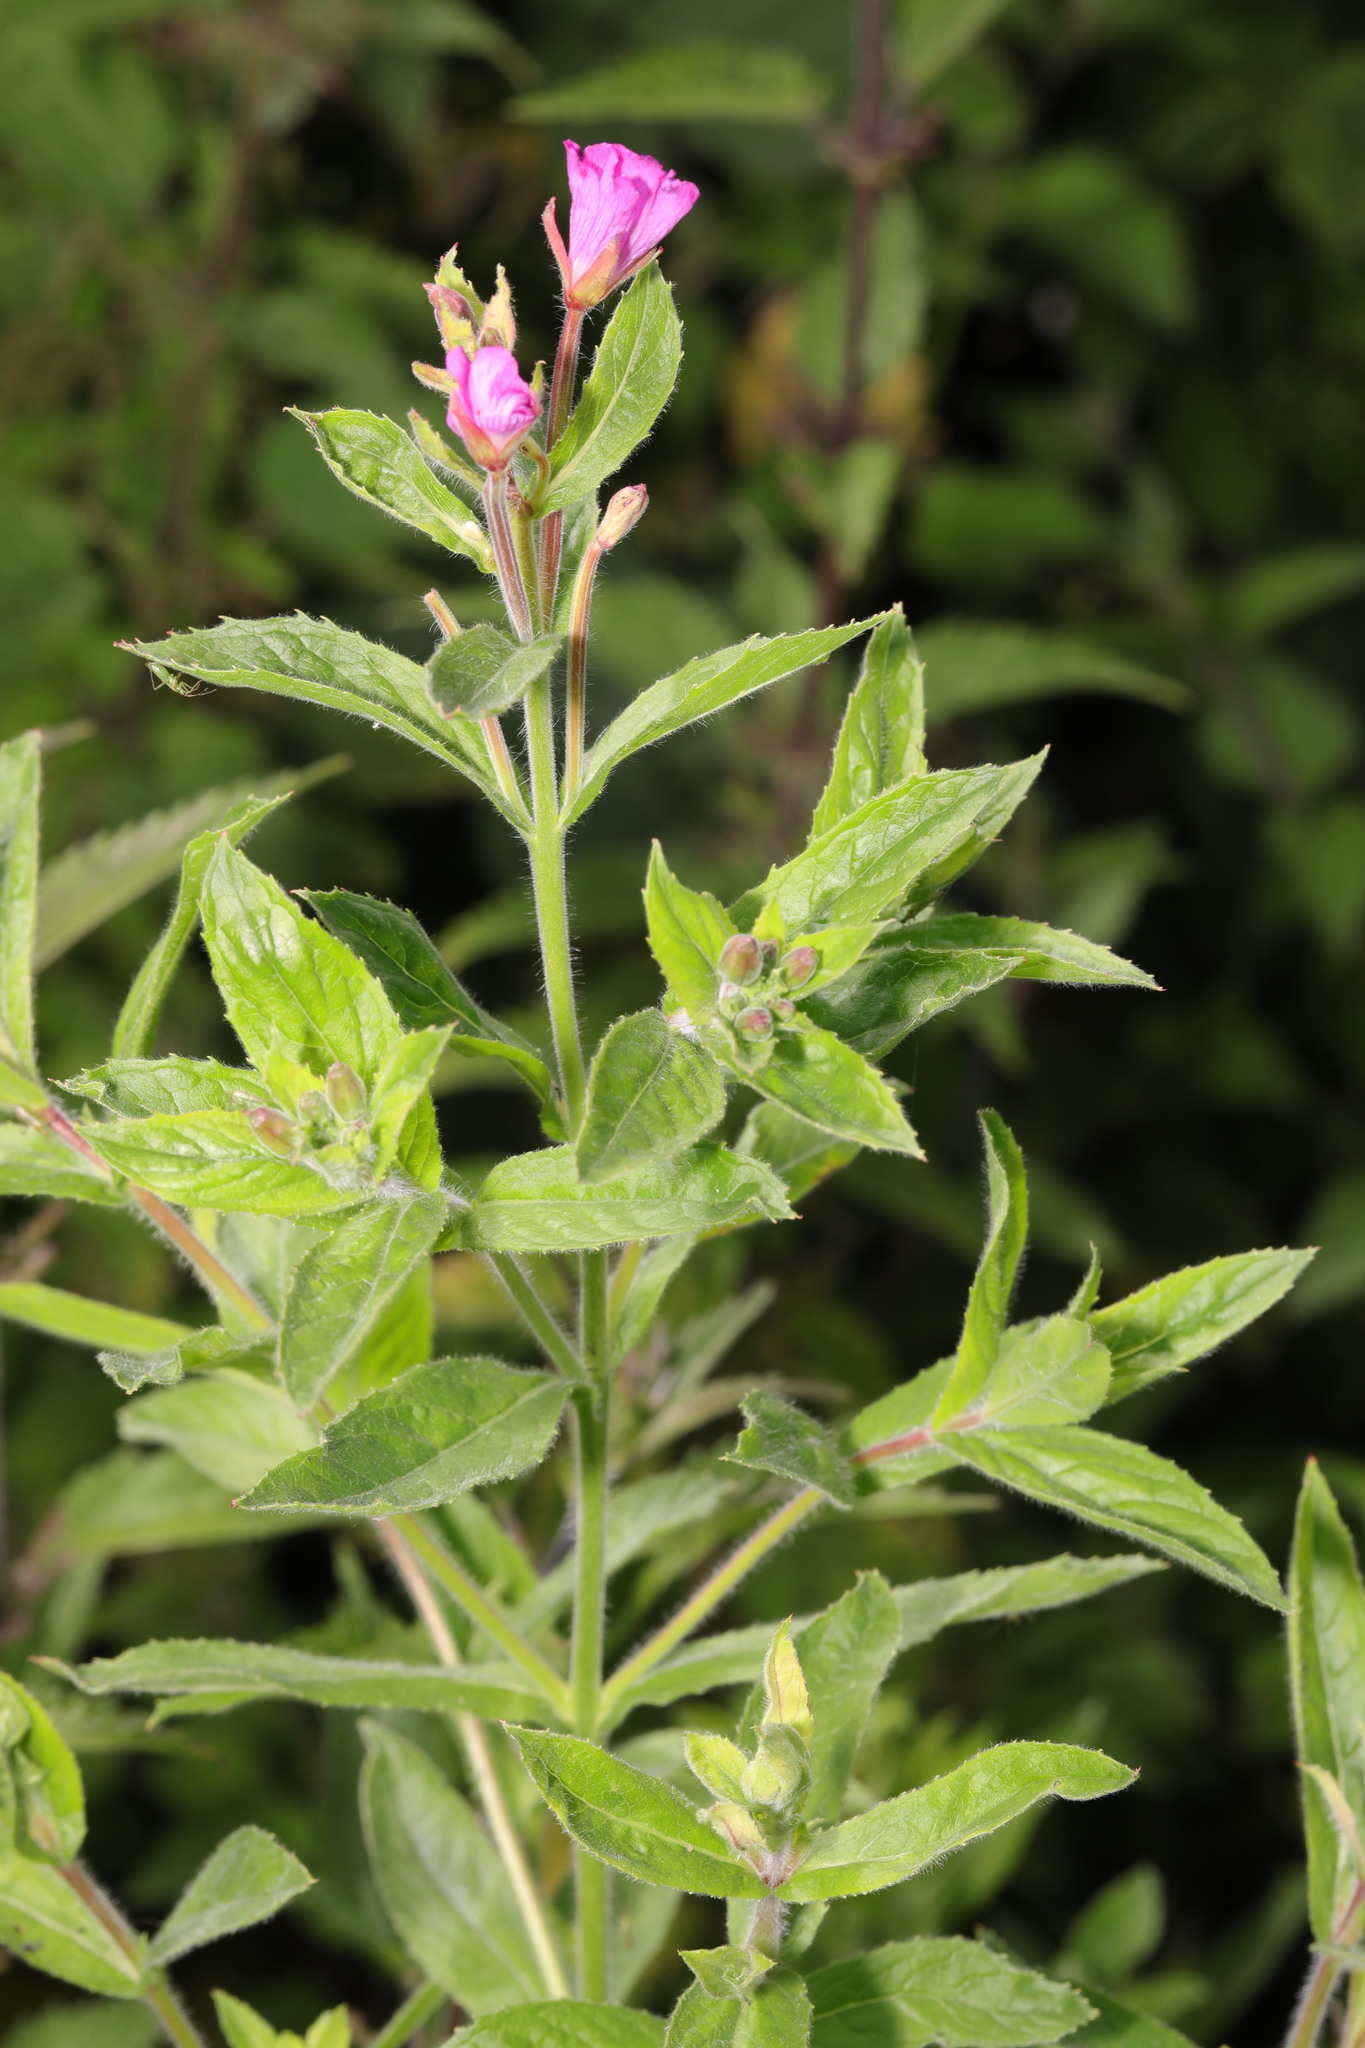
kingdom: Plantae
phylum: Tracheophyta
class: Magnoliopsida
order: Myrtales
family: Onagraceae
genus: Epilobium
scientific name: Epilobium hirsutum
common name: Great willowherb
